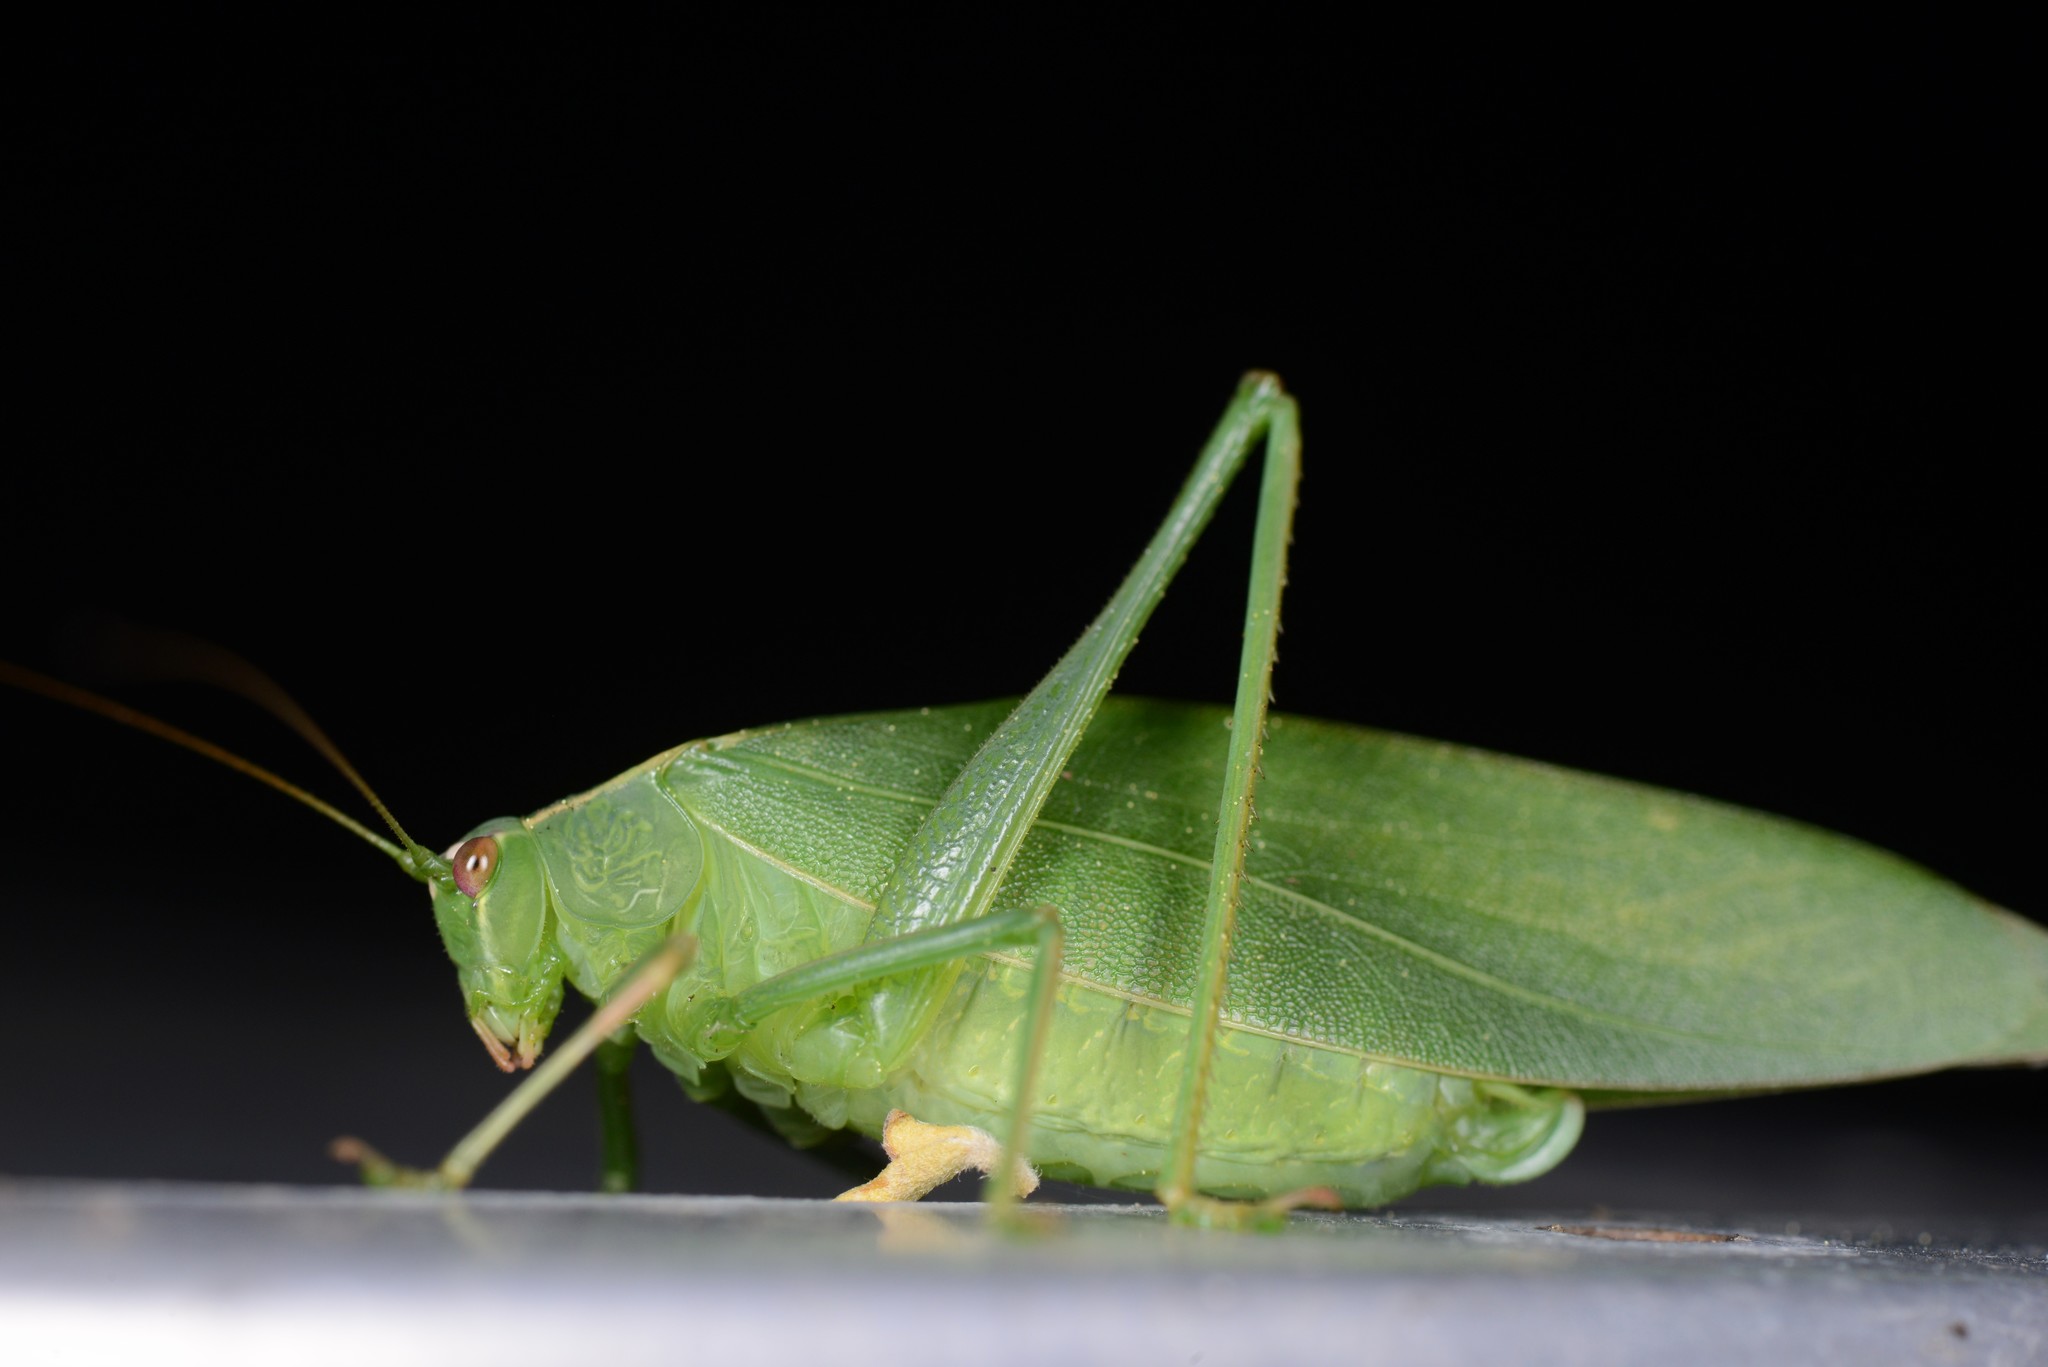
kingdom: Animalia
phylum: Arthropoda
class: Insecta
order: Orthoptera
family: Tettigoniidae
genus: Caedicia
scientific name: Caedicia simplex
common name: Common garden katydid
